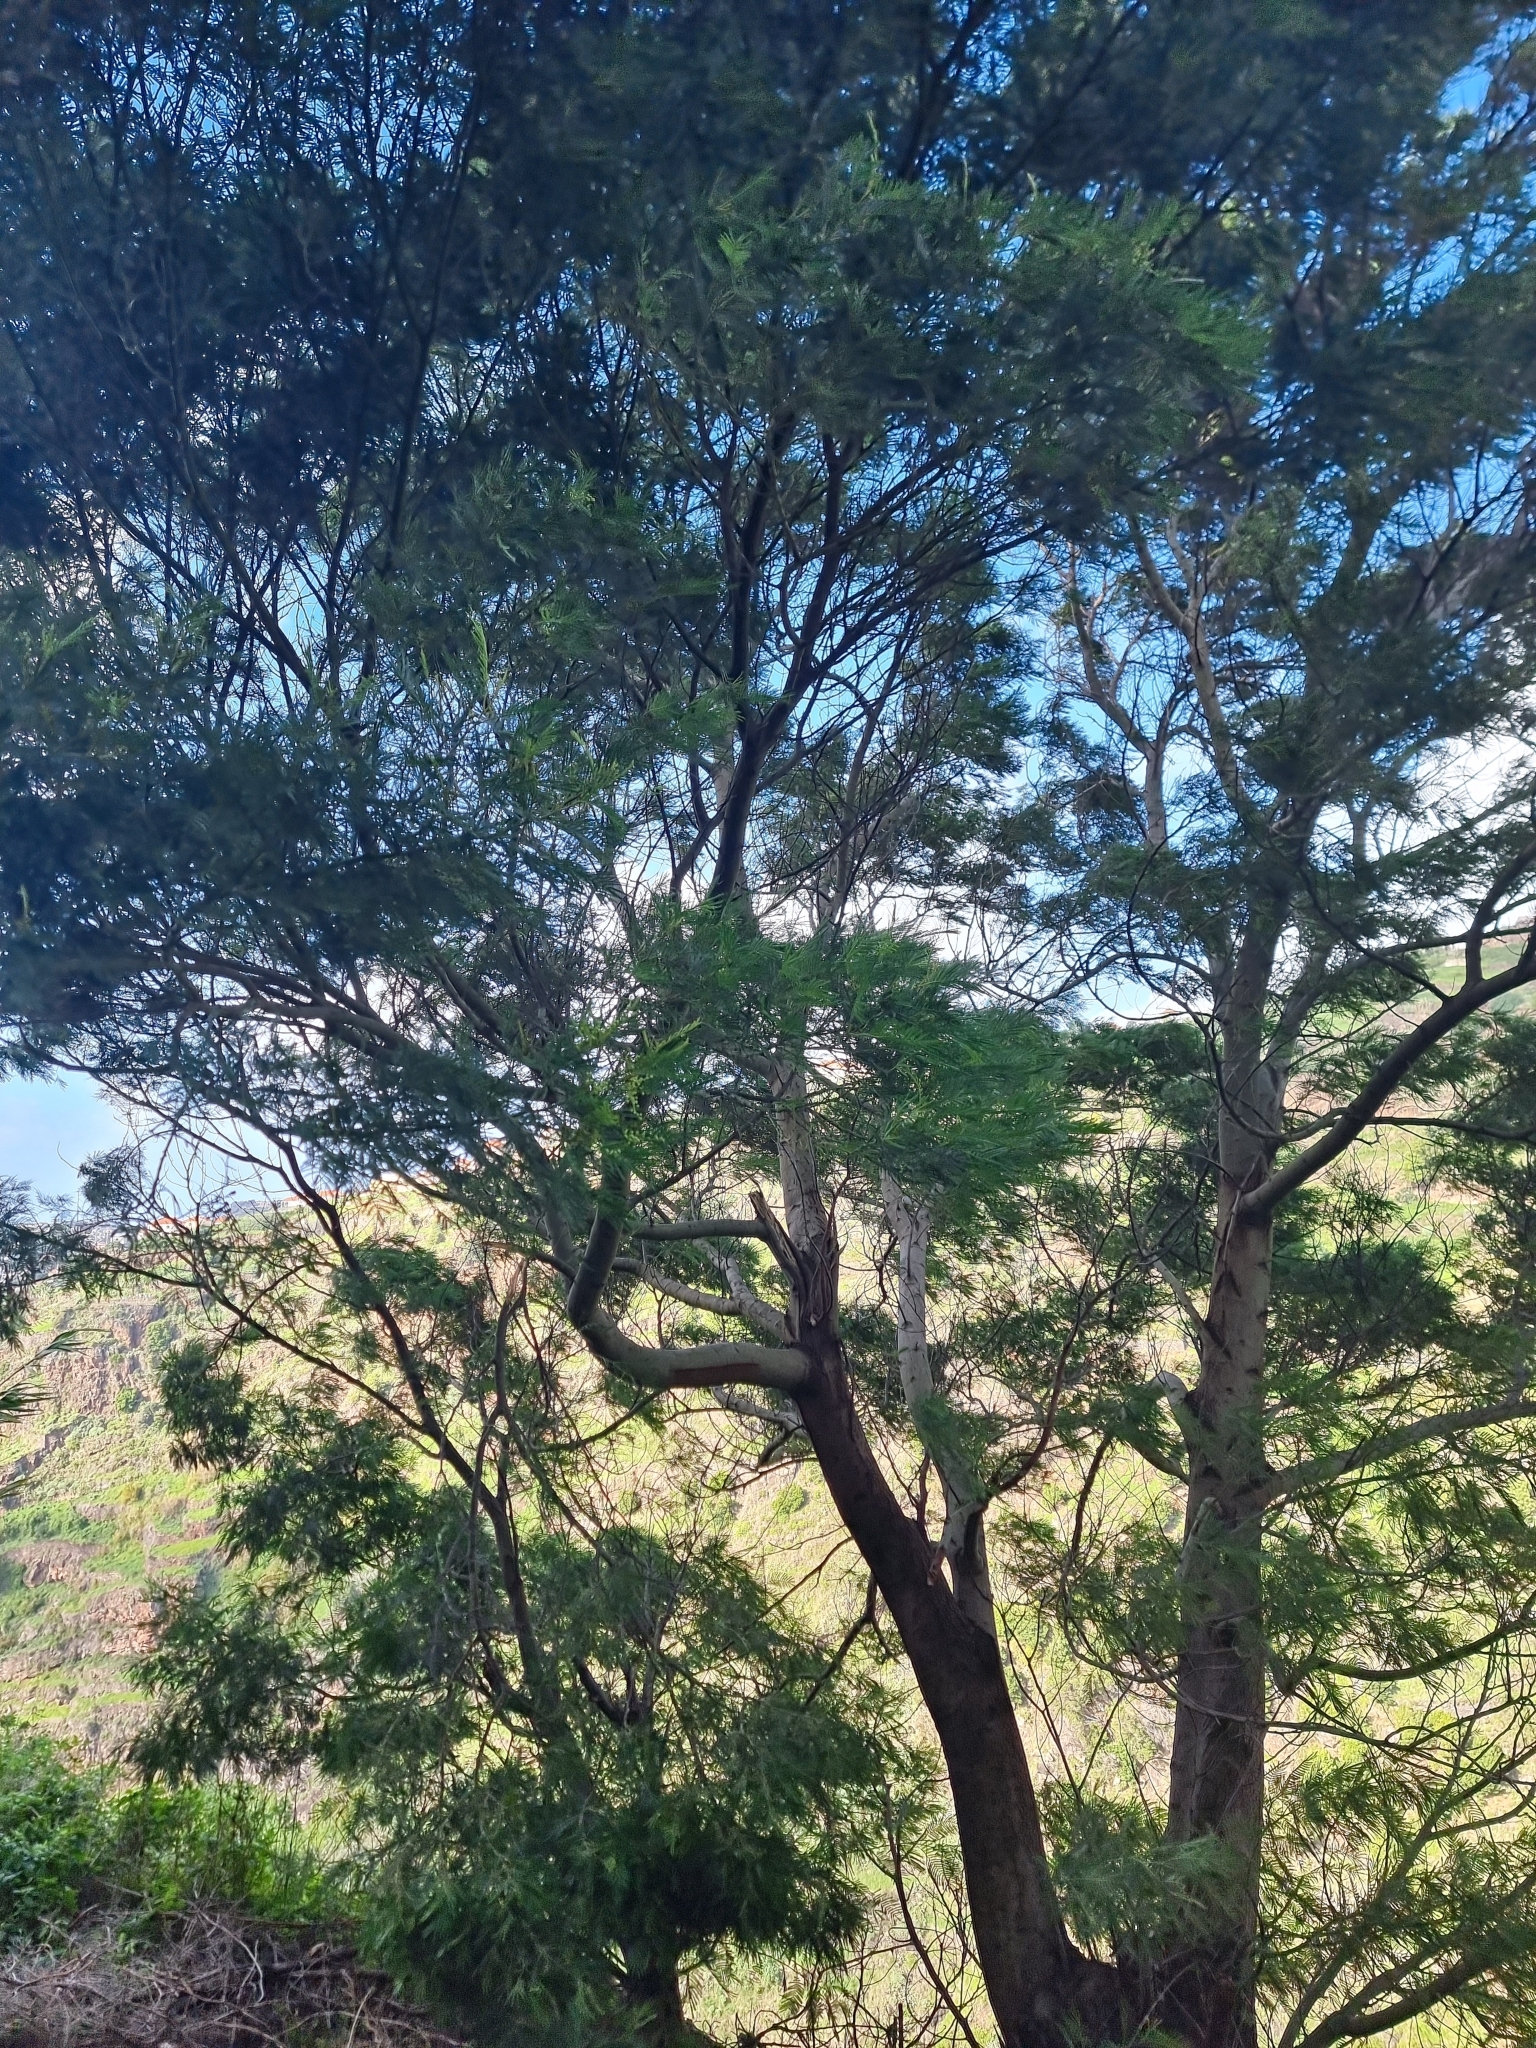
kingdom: Plantae
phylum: Tracheophyta
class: Magnoliopsida
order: Fabales
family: Fabaceae
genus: Acacia
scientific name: Acacia mearnsii
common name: Black wattle
